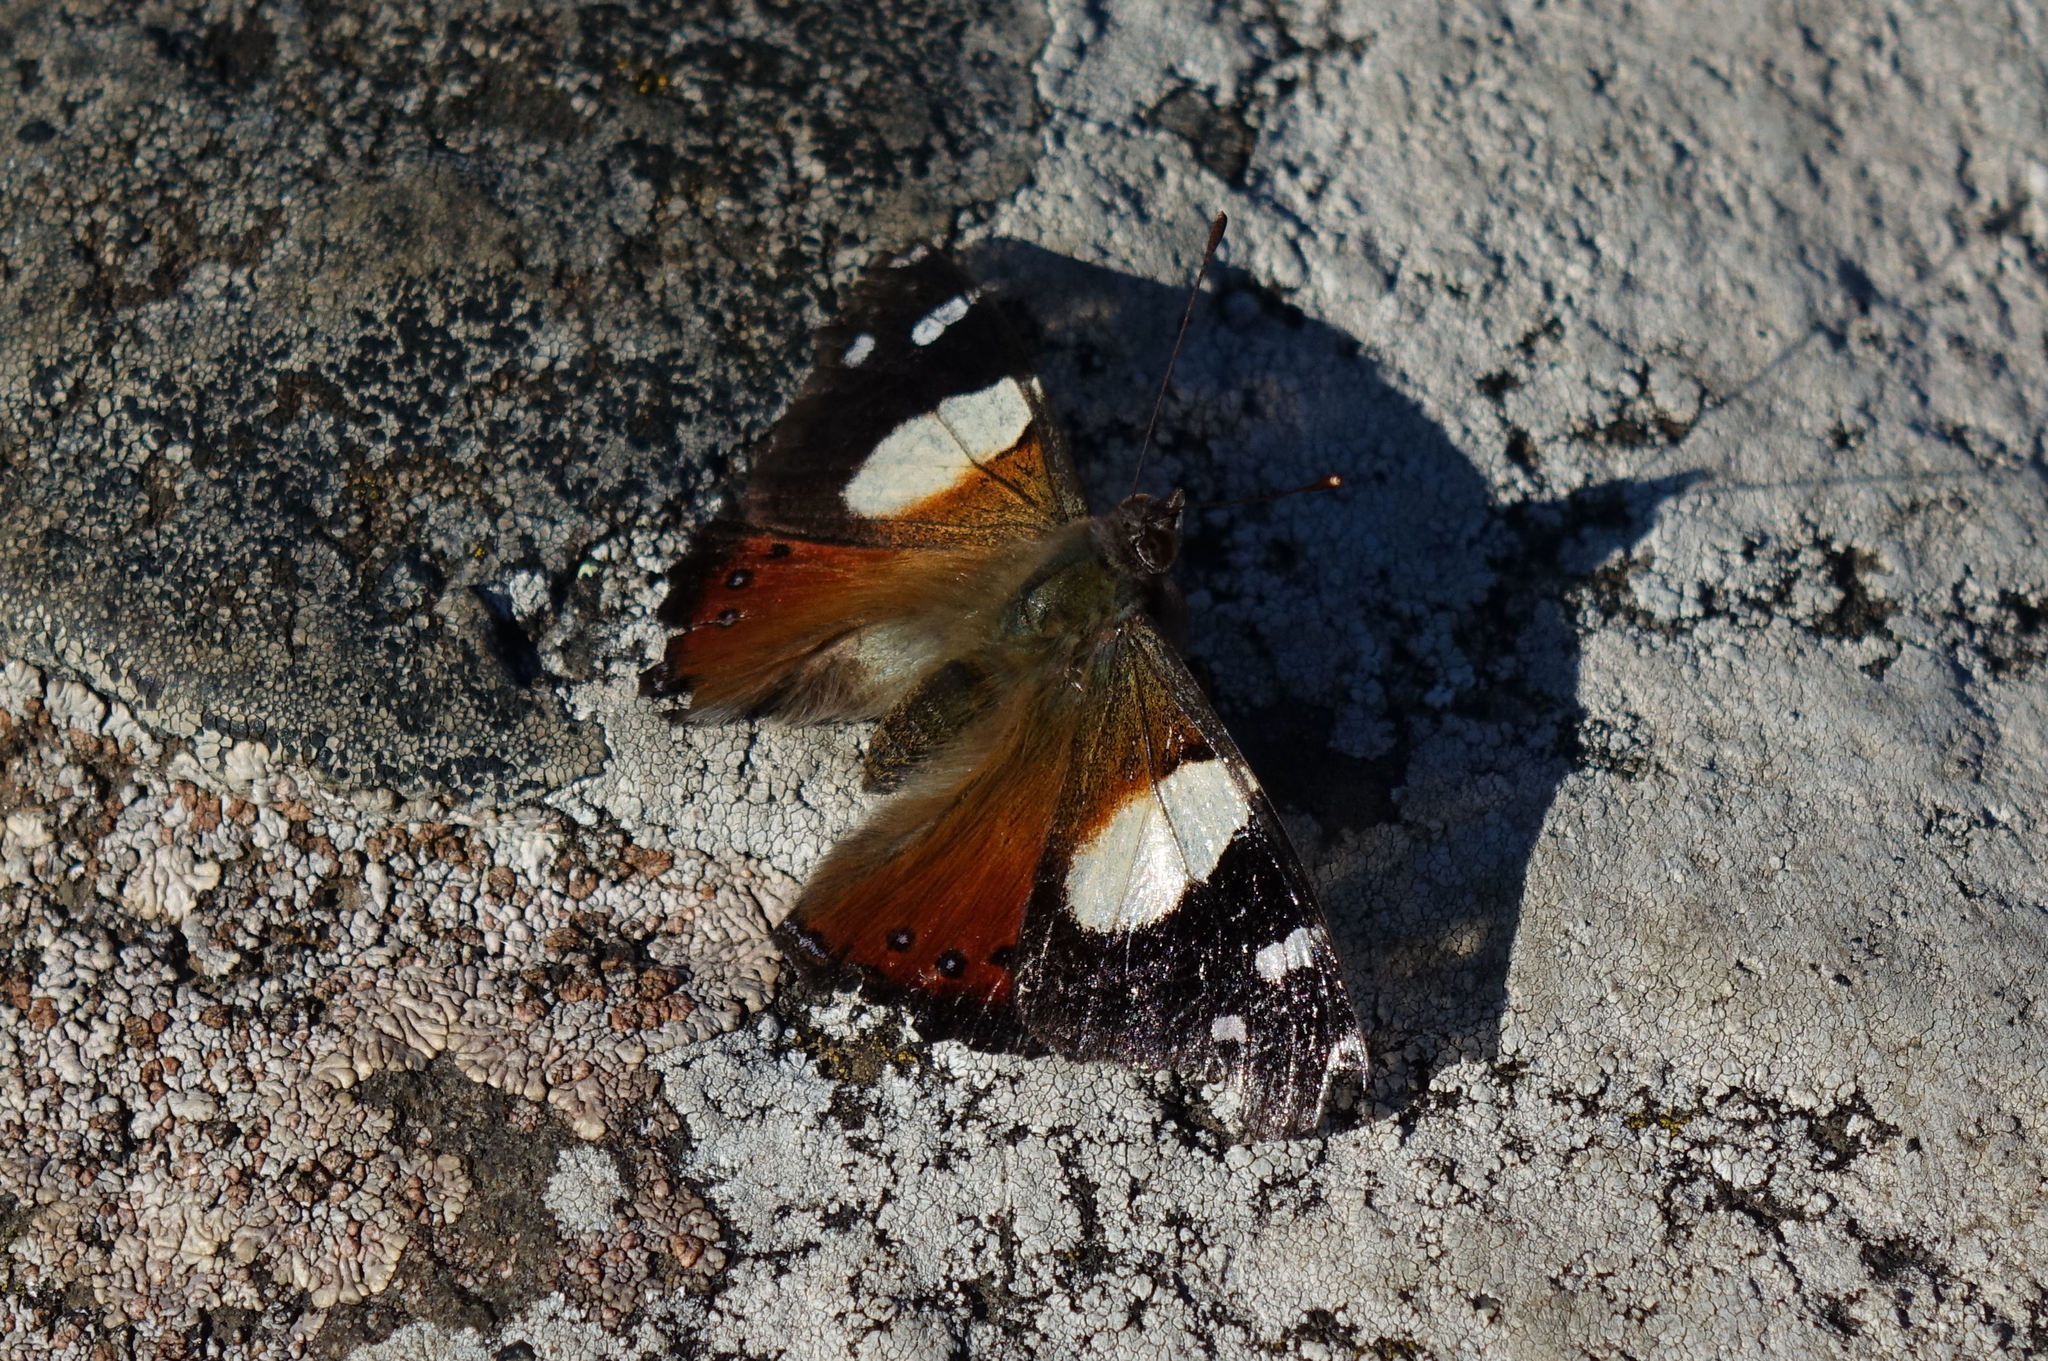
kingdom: Animalia
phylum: Arthropoda
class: Insecta
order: Lepidoptera
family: Nymphalidae
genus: Vanessa
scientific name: Vanessa itea
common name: Yellow admiral
